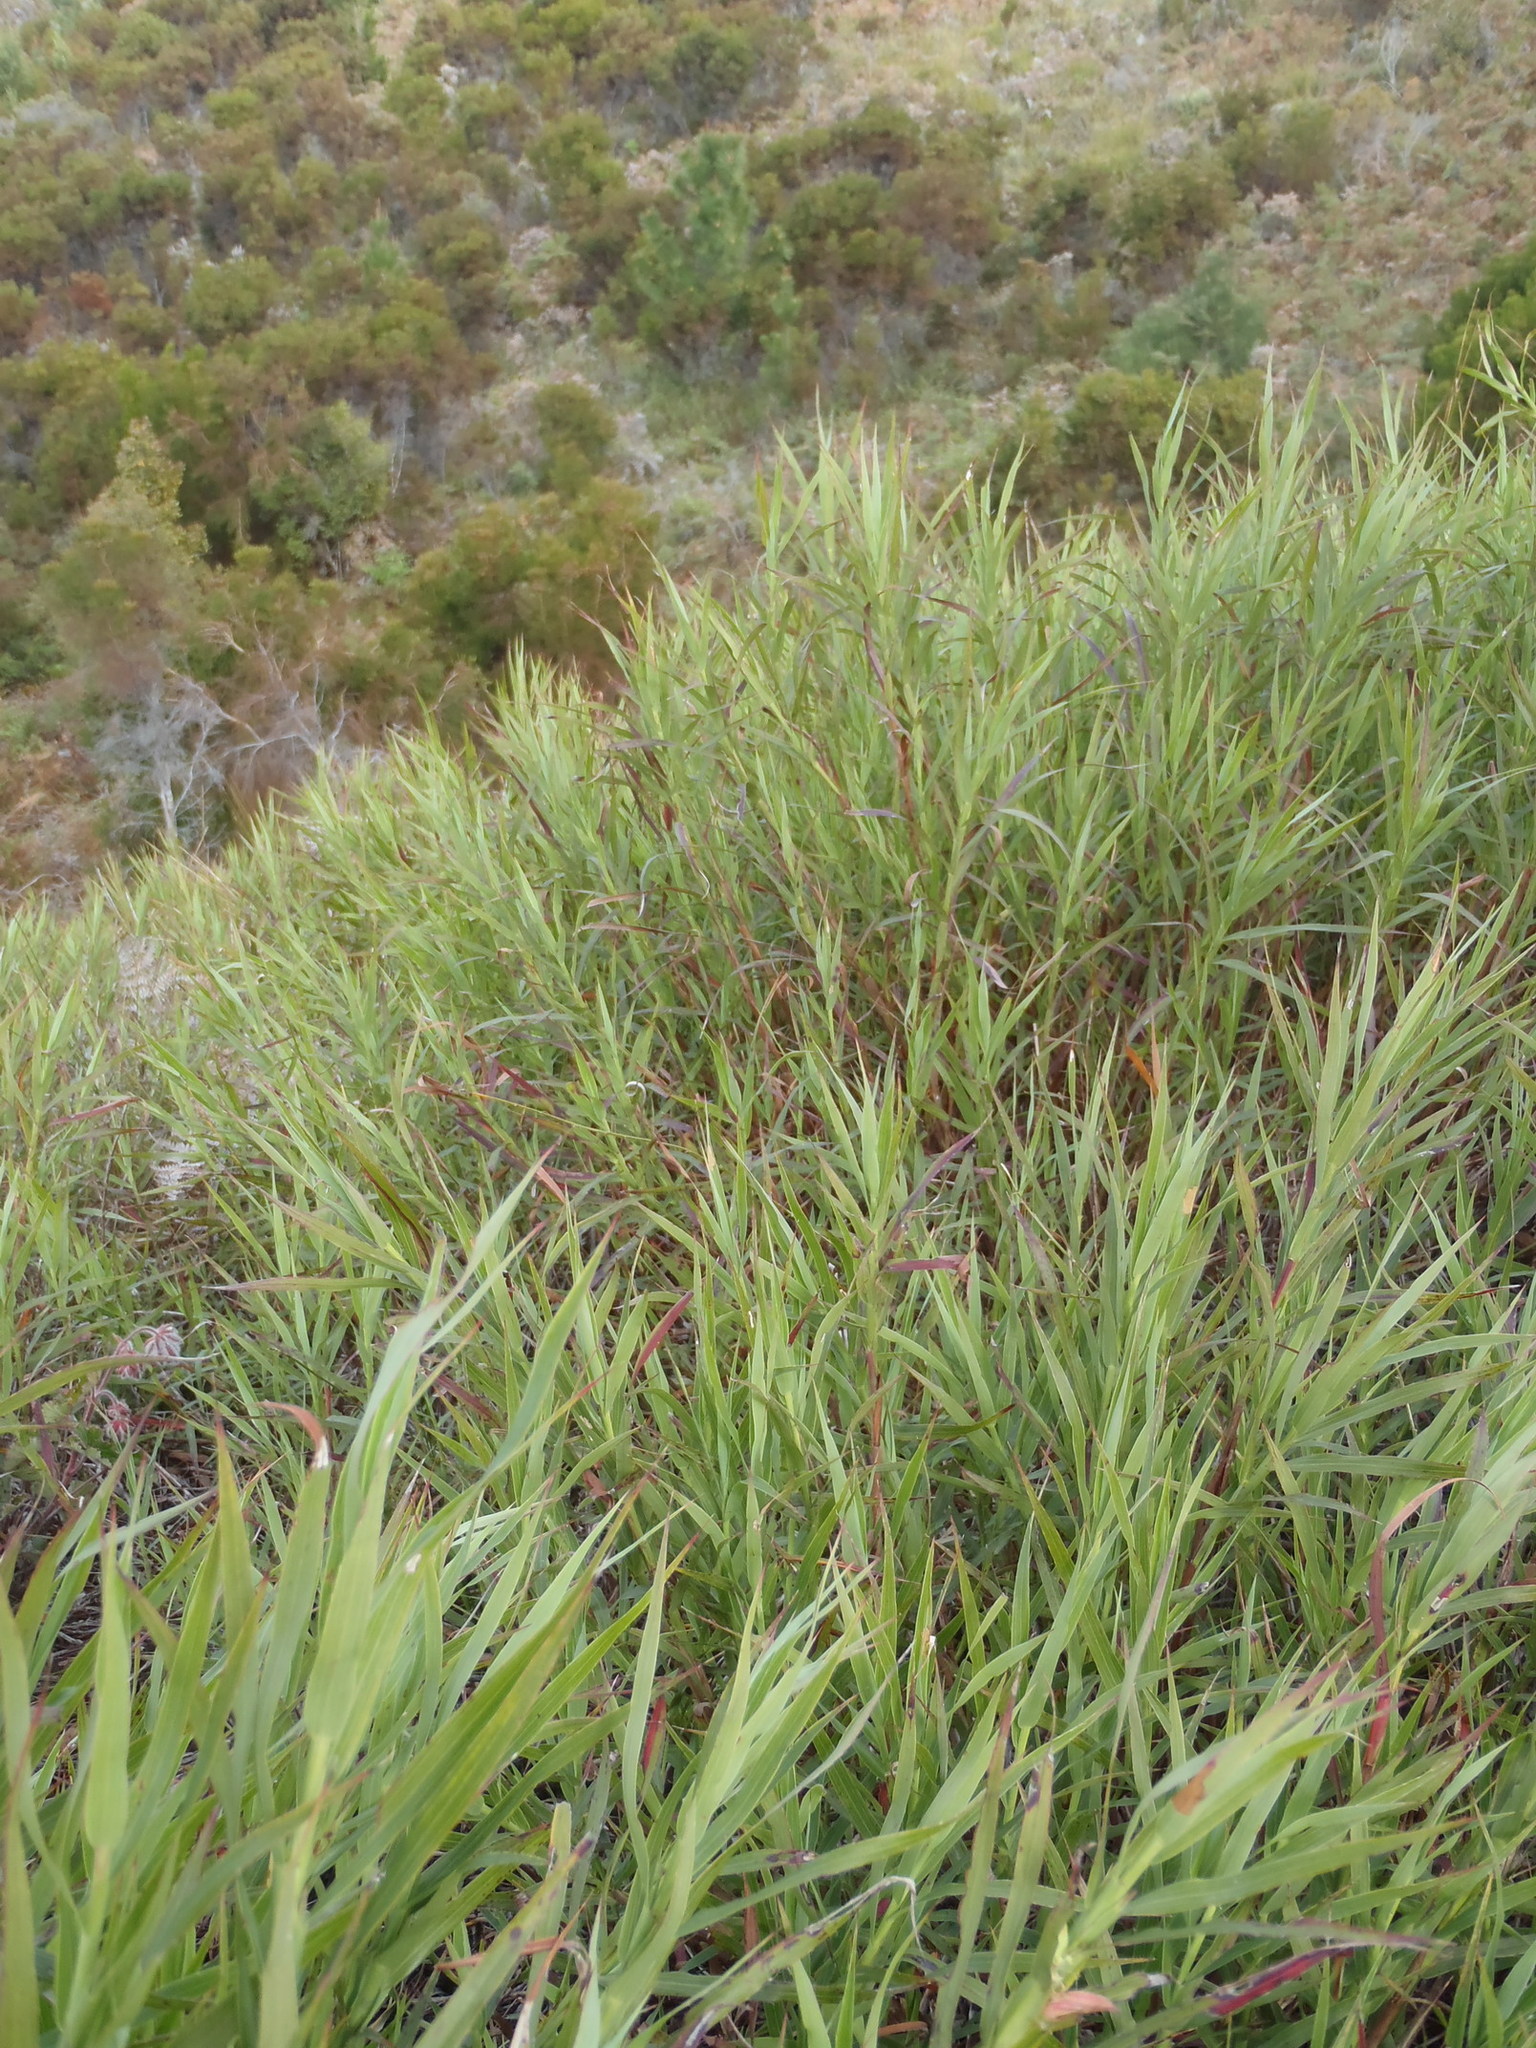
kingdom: Plantae
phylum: Tracheophyta
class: Magnoliopsida
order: Rosales
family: Rosaceae
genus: Cliffortia
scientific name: Cliffortia graminea
